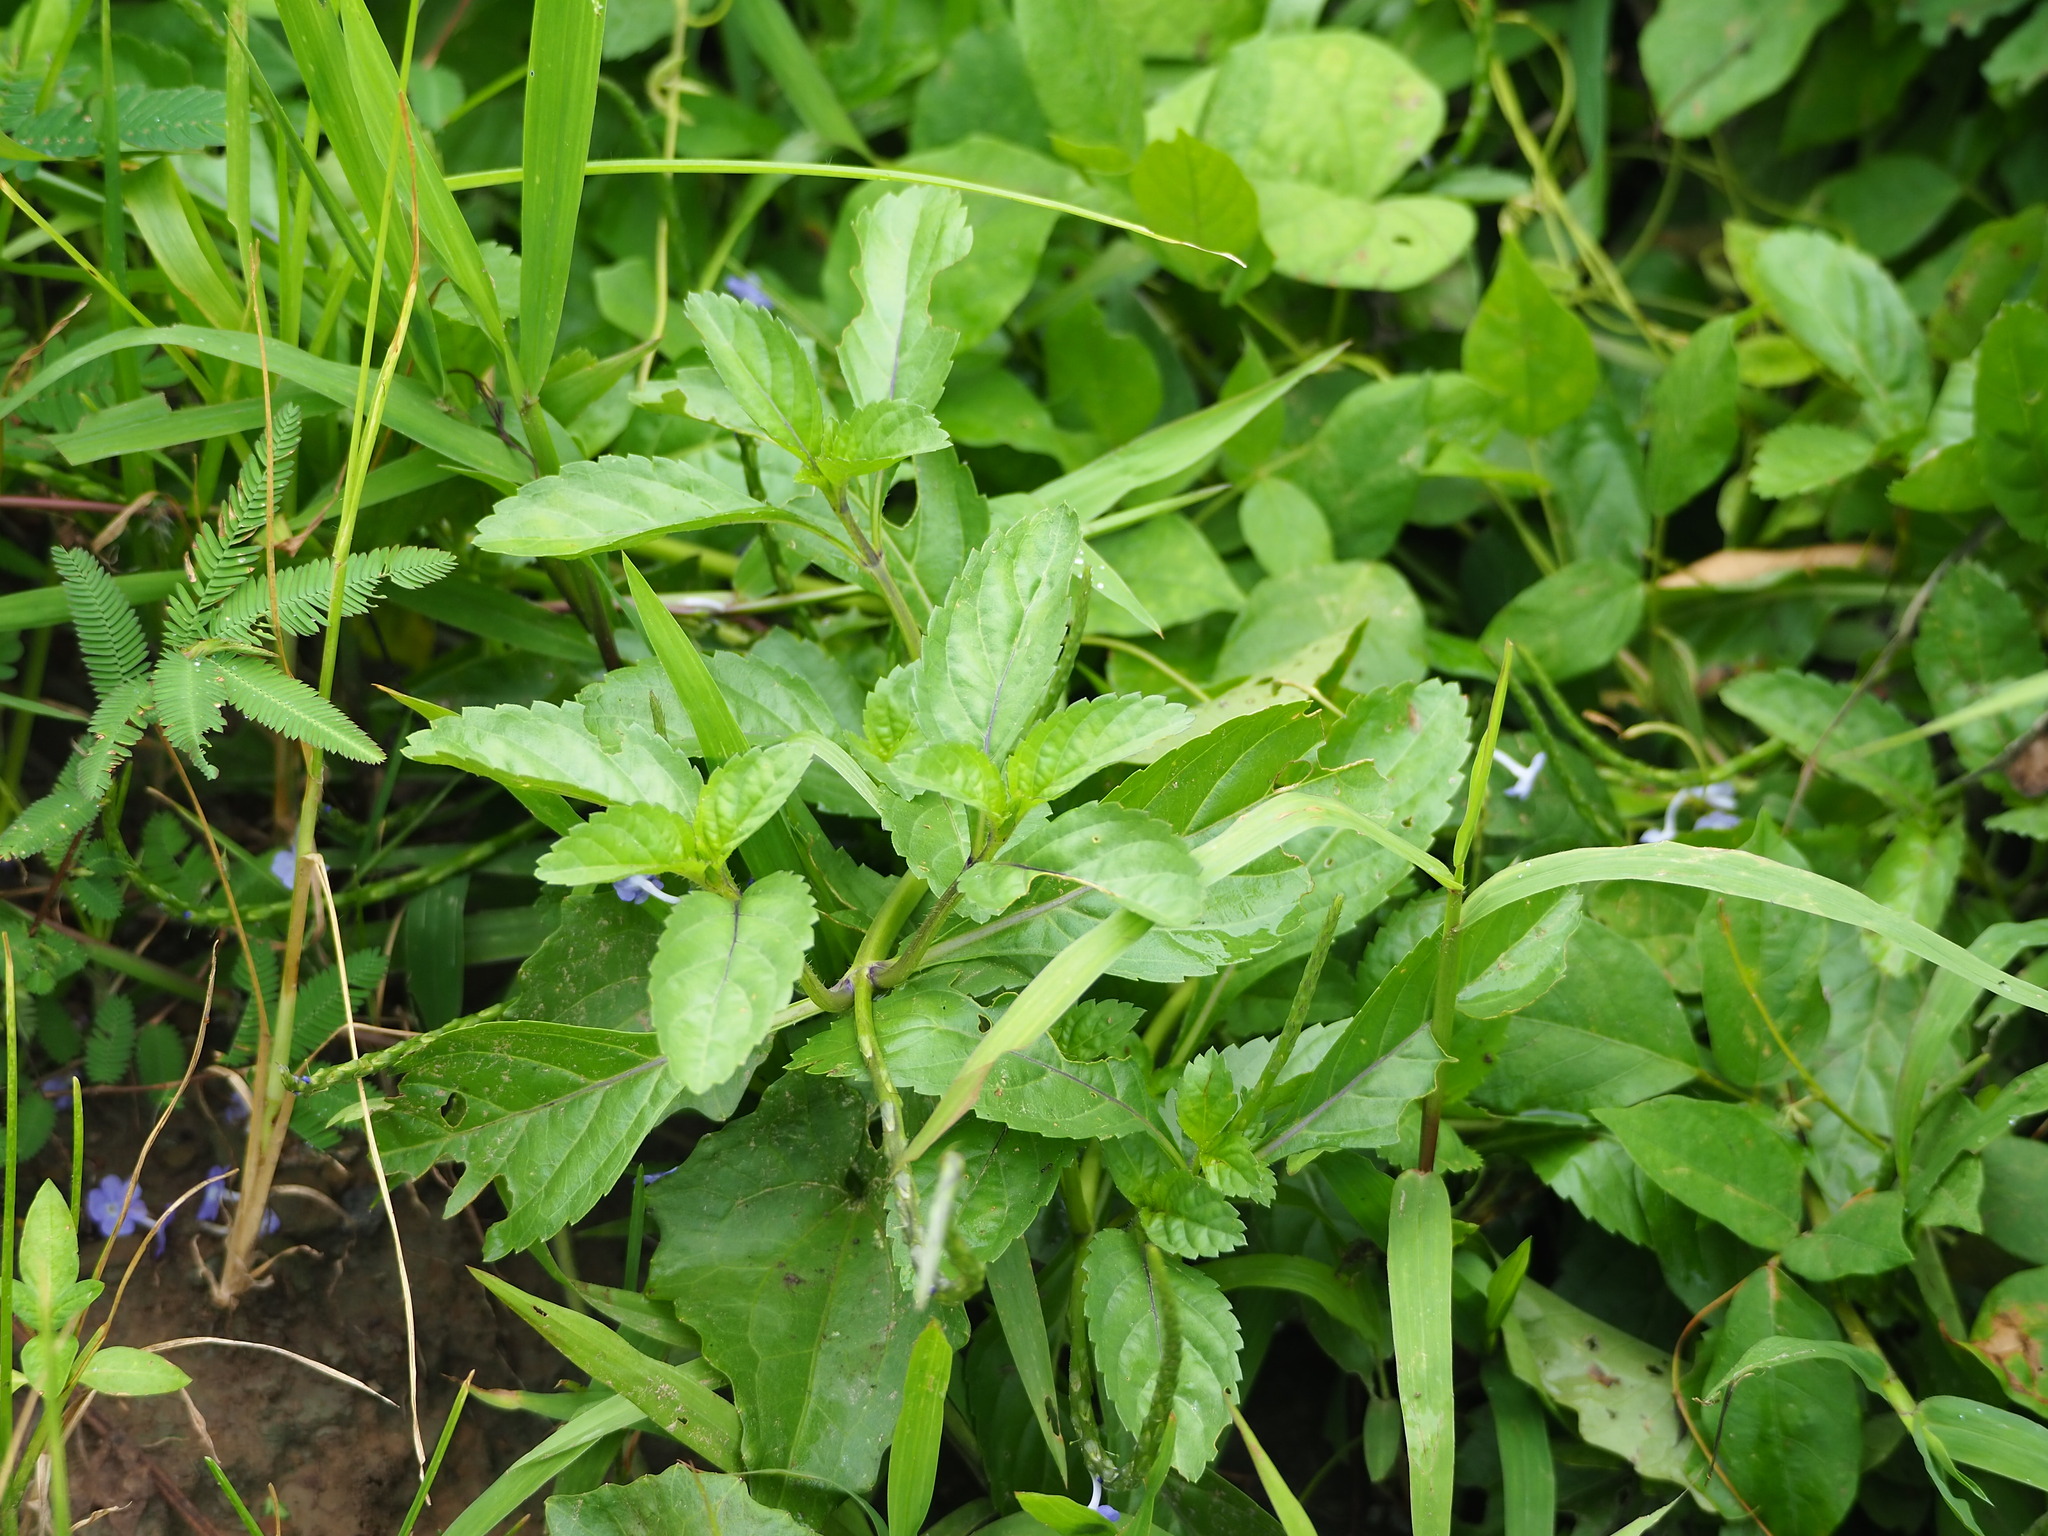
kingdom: Plantae
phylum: Tracheophyta
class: Magnoliopsida
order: Lamiales
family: Verbenaceae
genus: Stachytarpheta
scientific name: Stachytarpheta jamaicensis
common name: Light-blue snakeweed
